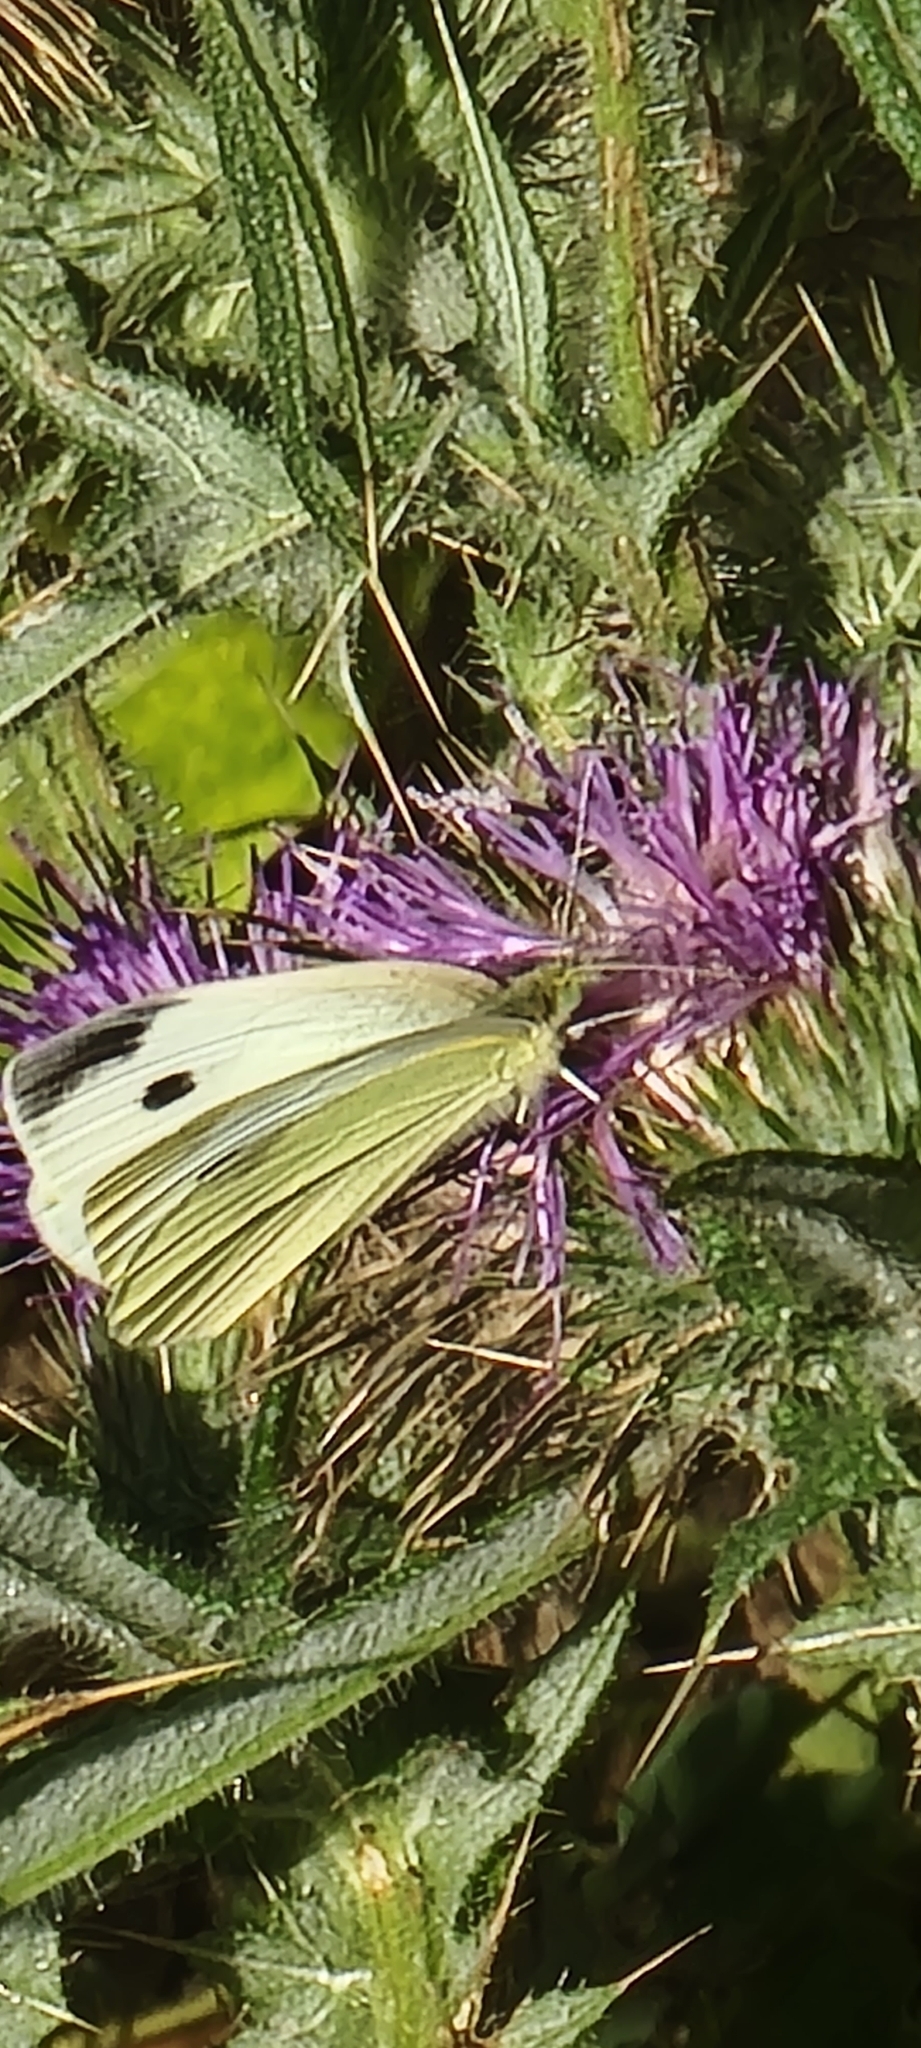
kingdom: Animalia
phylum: Arthropoda
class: Insecta
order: Lepidoptera
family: Pieridae
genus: Pieris
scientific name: Pieris rapae
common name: Small white
